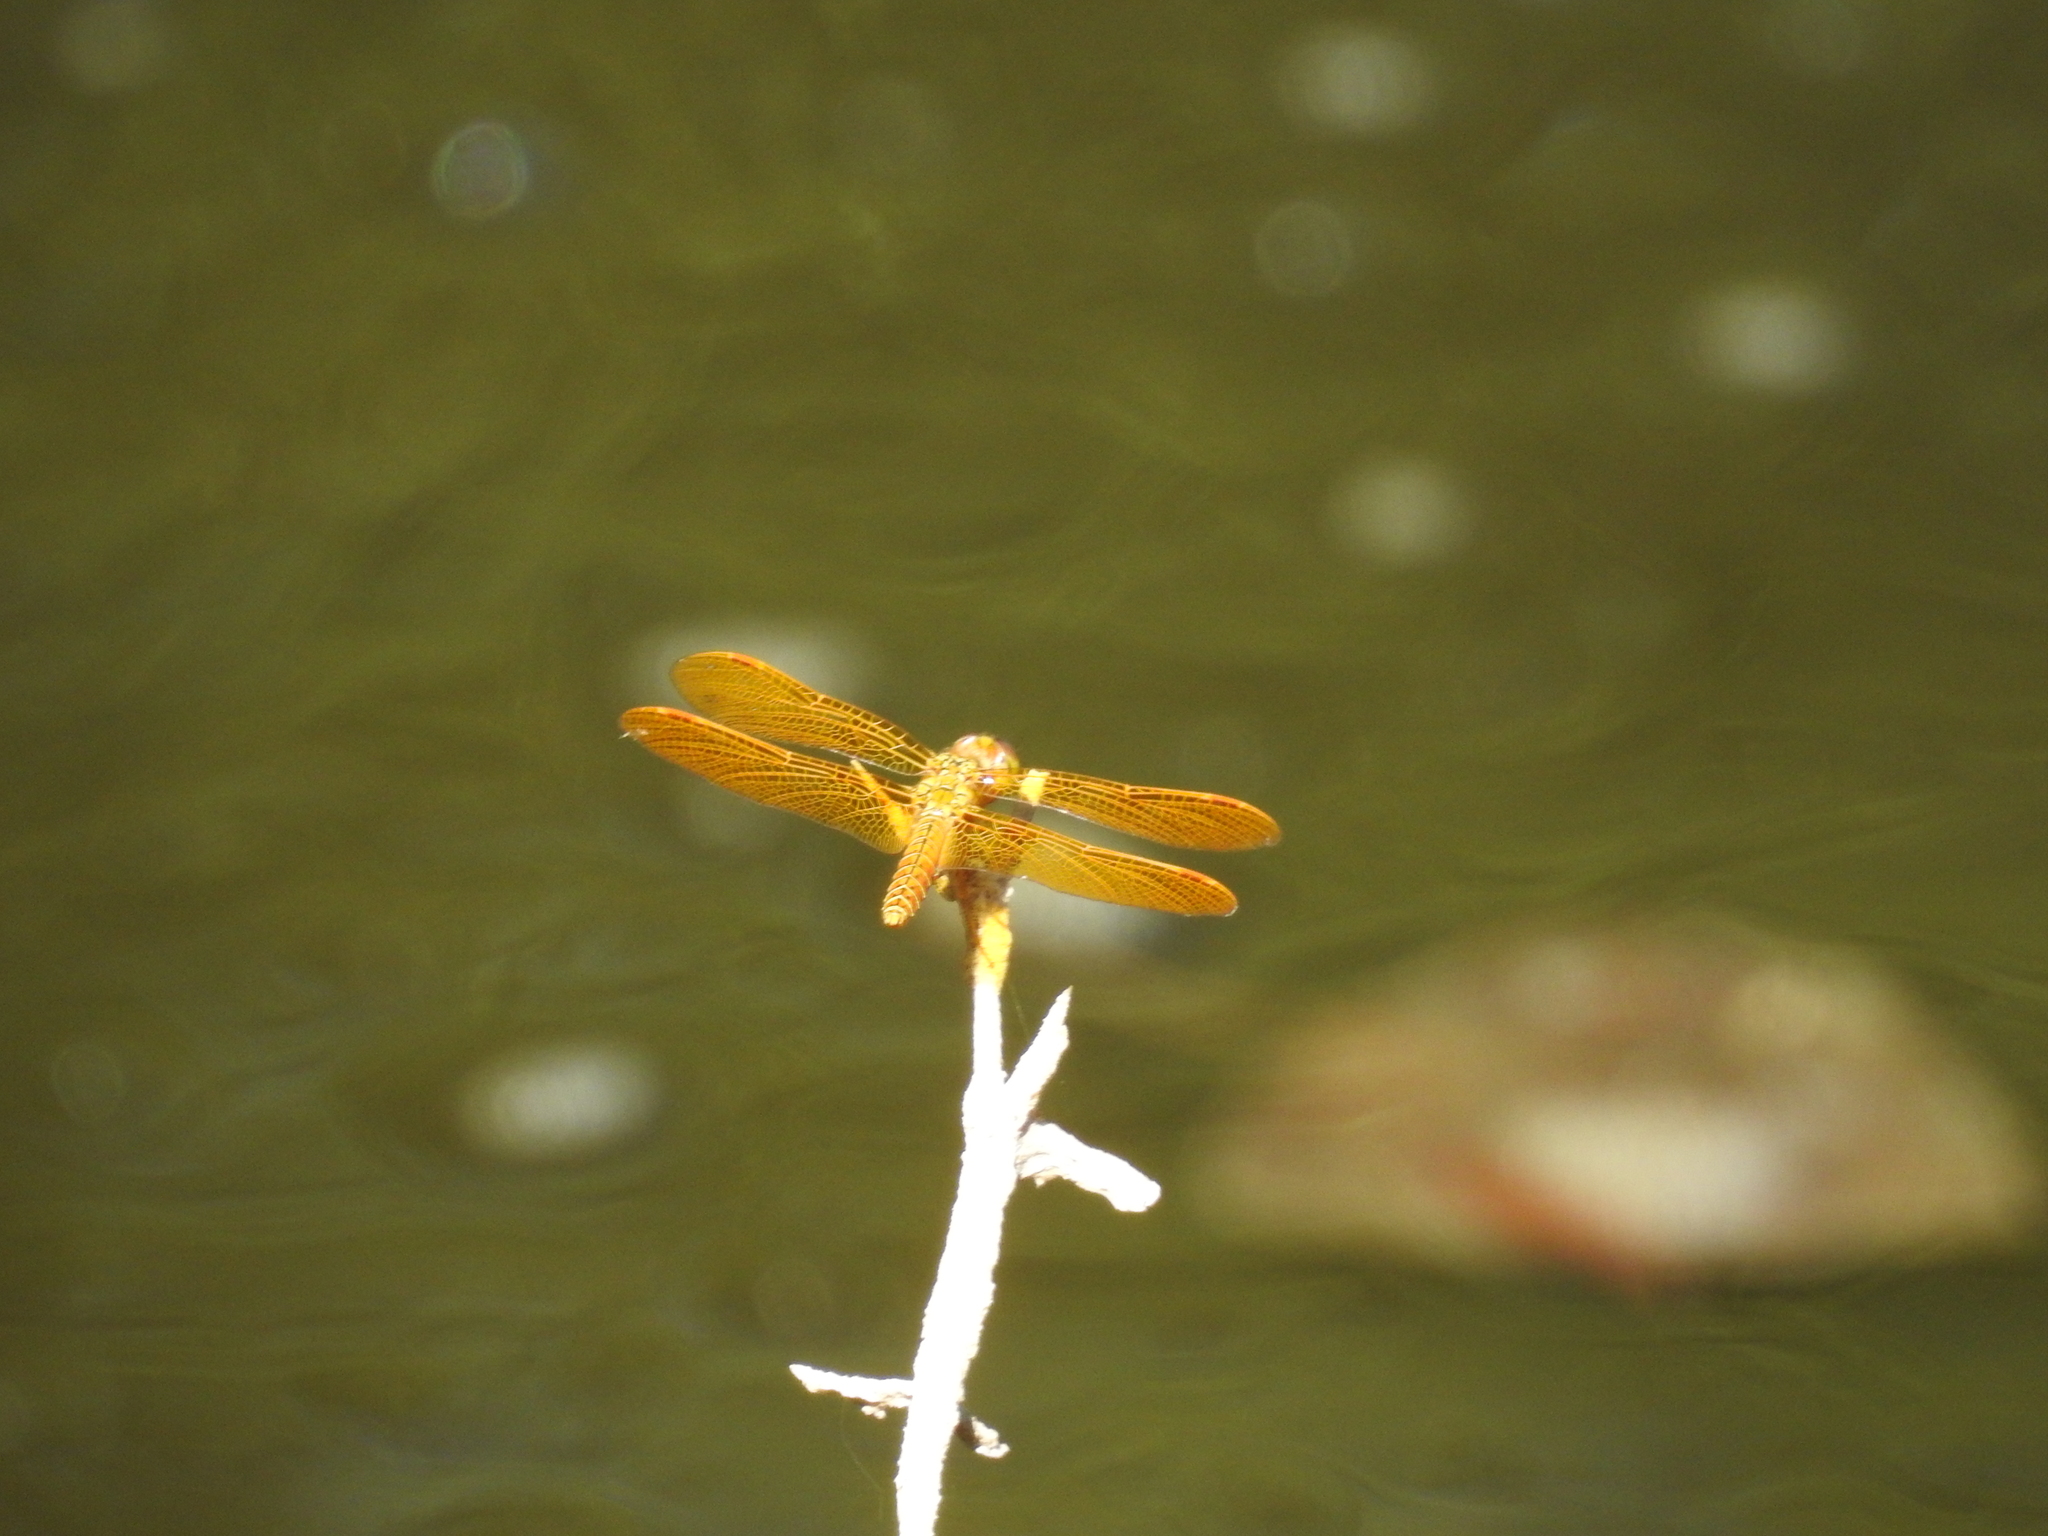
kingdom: Animalia
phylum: Arthropoda
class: Insecta
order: Odonata
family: Libellulidae
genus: Perithemis
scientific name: Perithemis intensa
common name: Mexican amberwing
